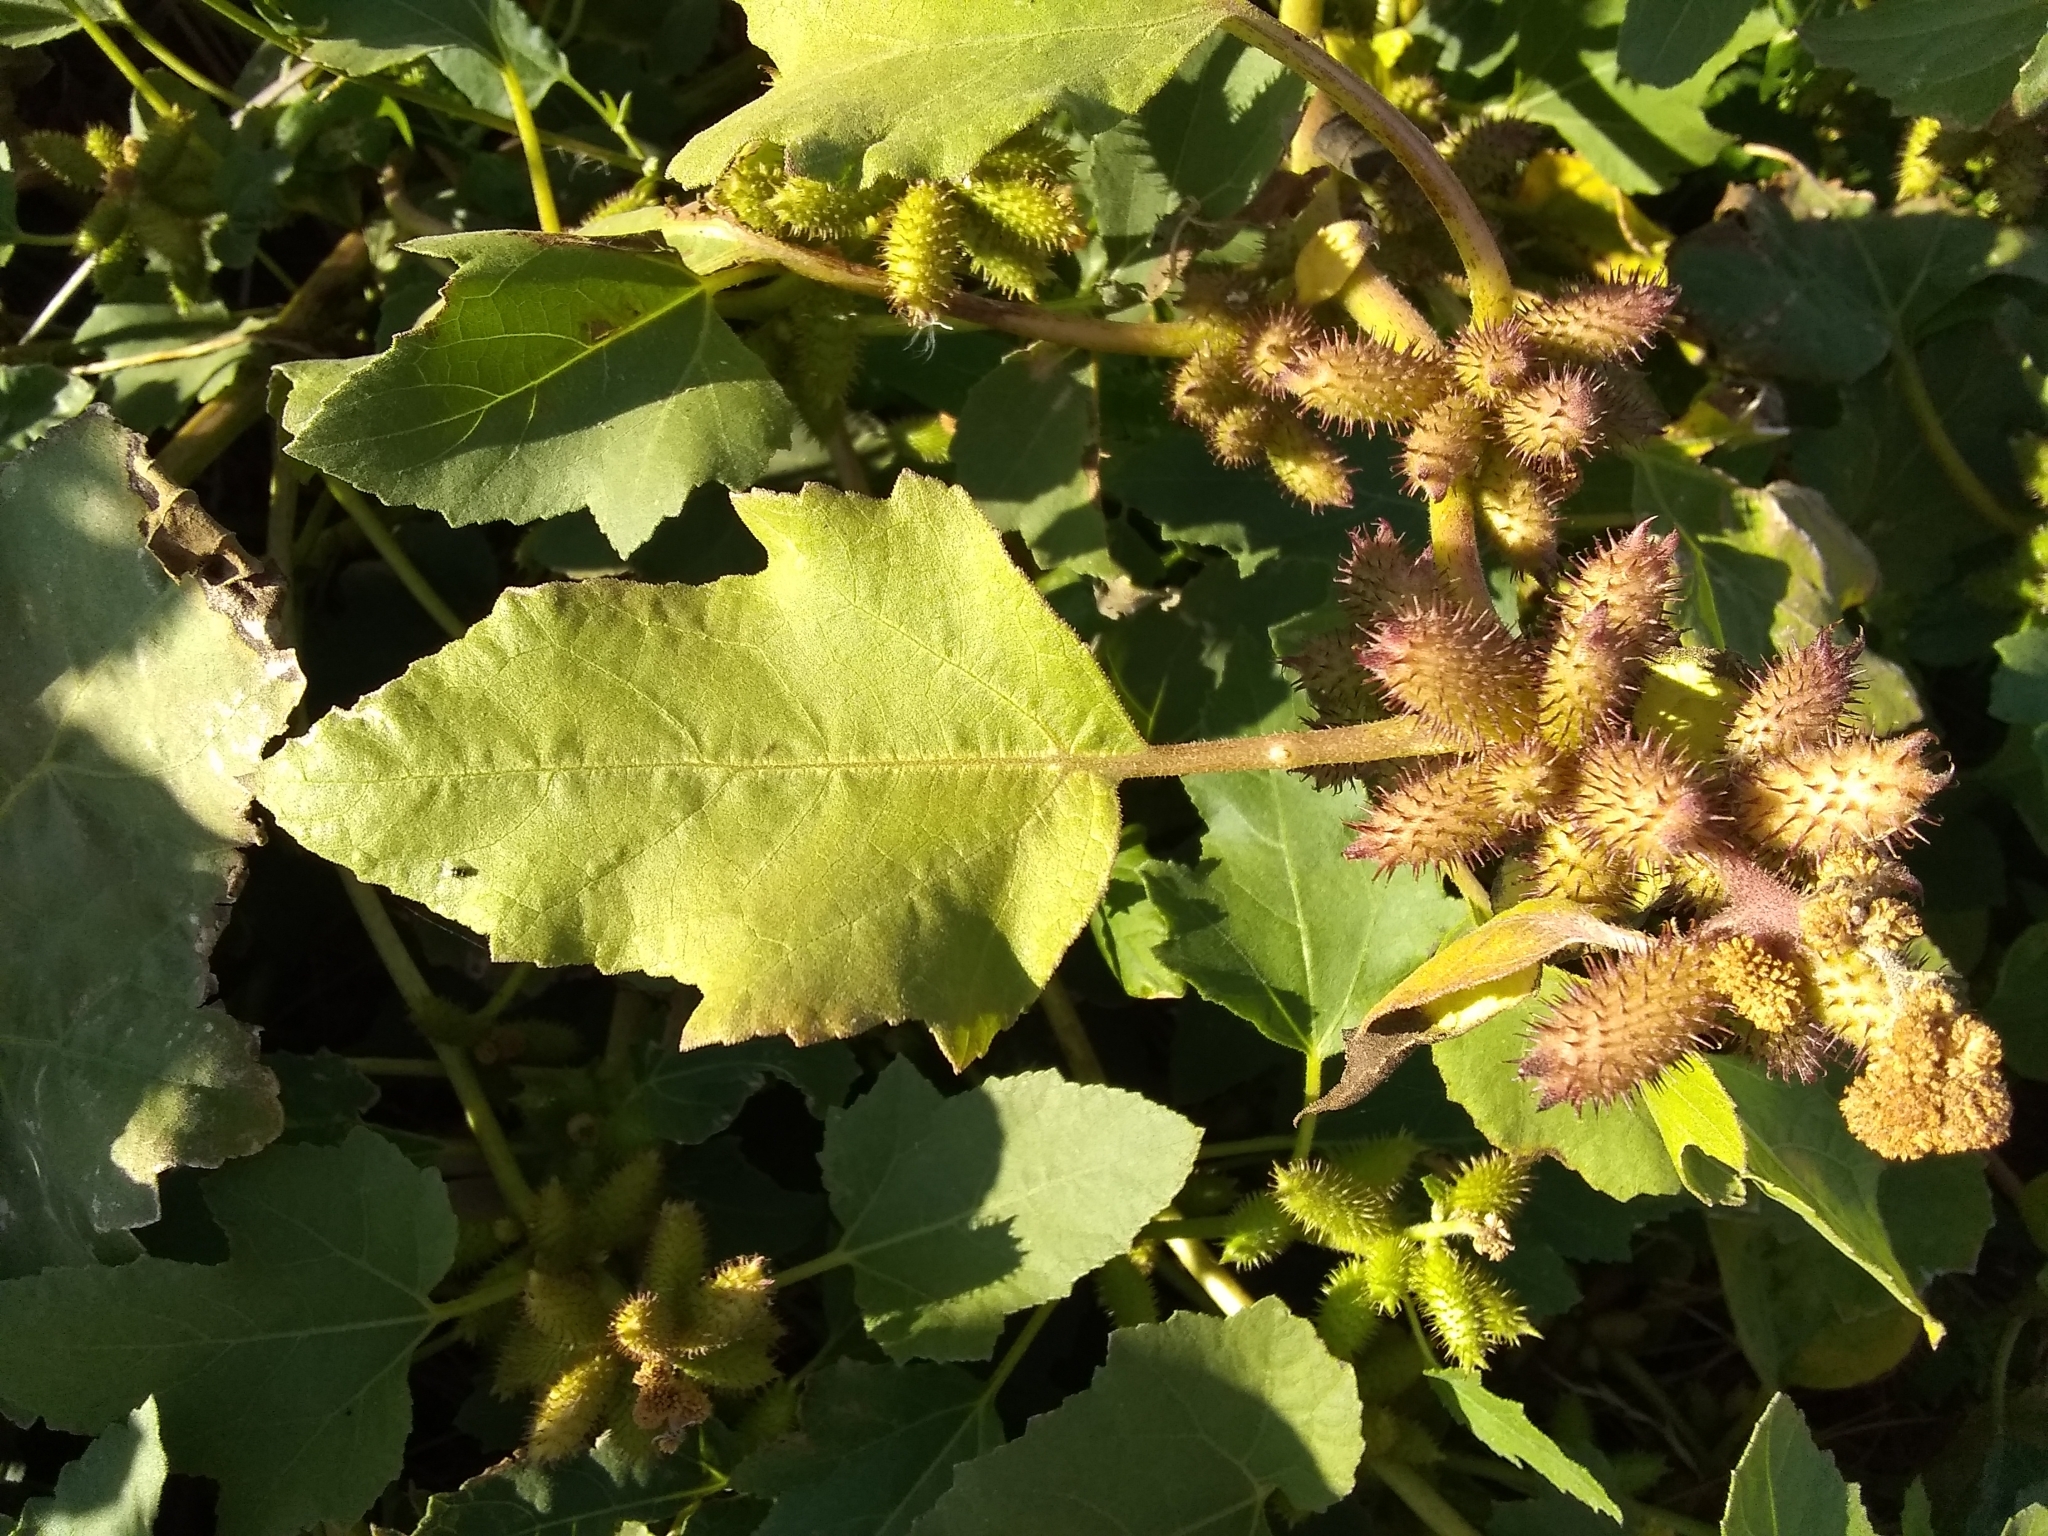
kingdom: Plantae
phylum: Tracheophyta
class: Magnoliopsida
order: Asterales
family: Asteraceae
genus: Xanthium
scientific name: Xanthium strumarium
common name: Rough cocklebur
